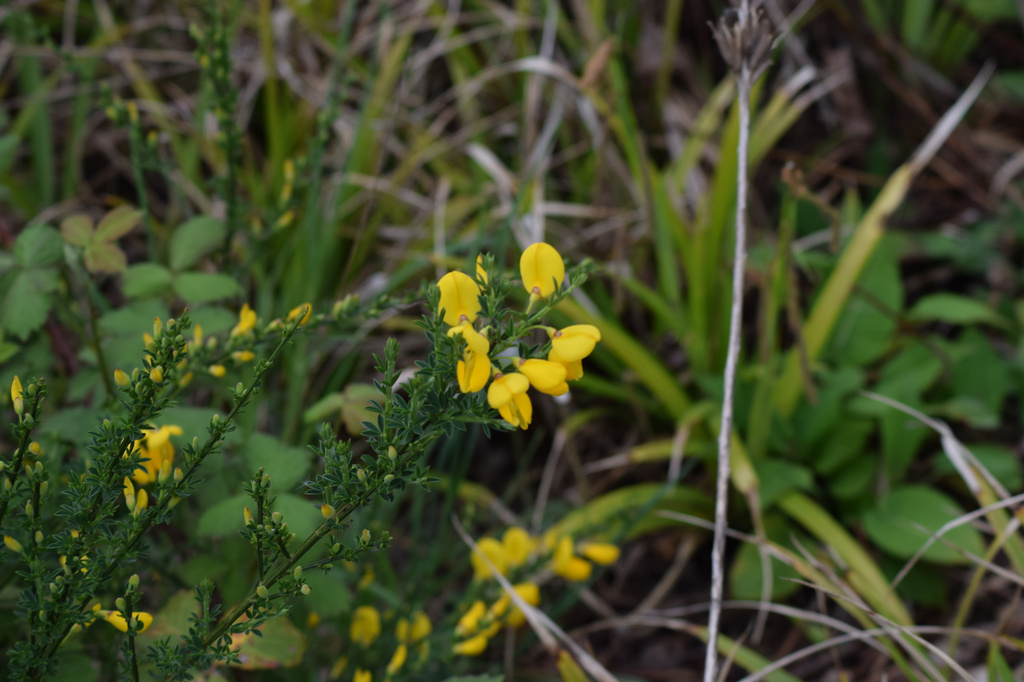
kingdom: Plantae
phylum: Tracheophyta
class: Magnoliopsida
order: Fabales
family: Fabaceae
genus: Cytisus
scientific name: Cytisus scoparius
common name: Scotch broom
